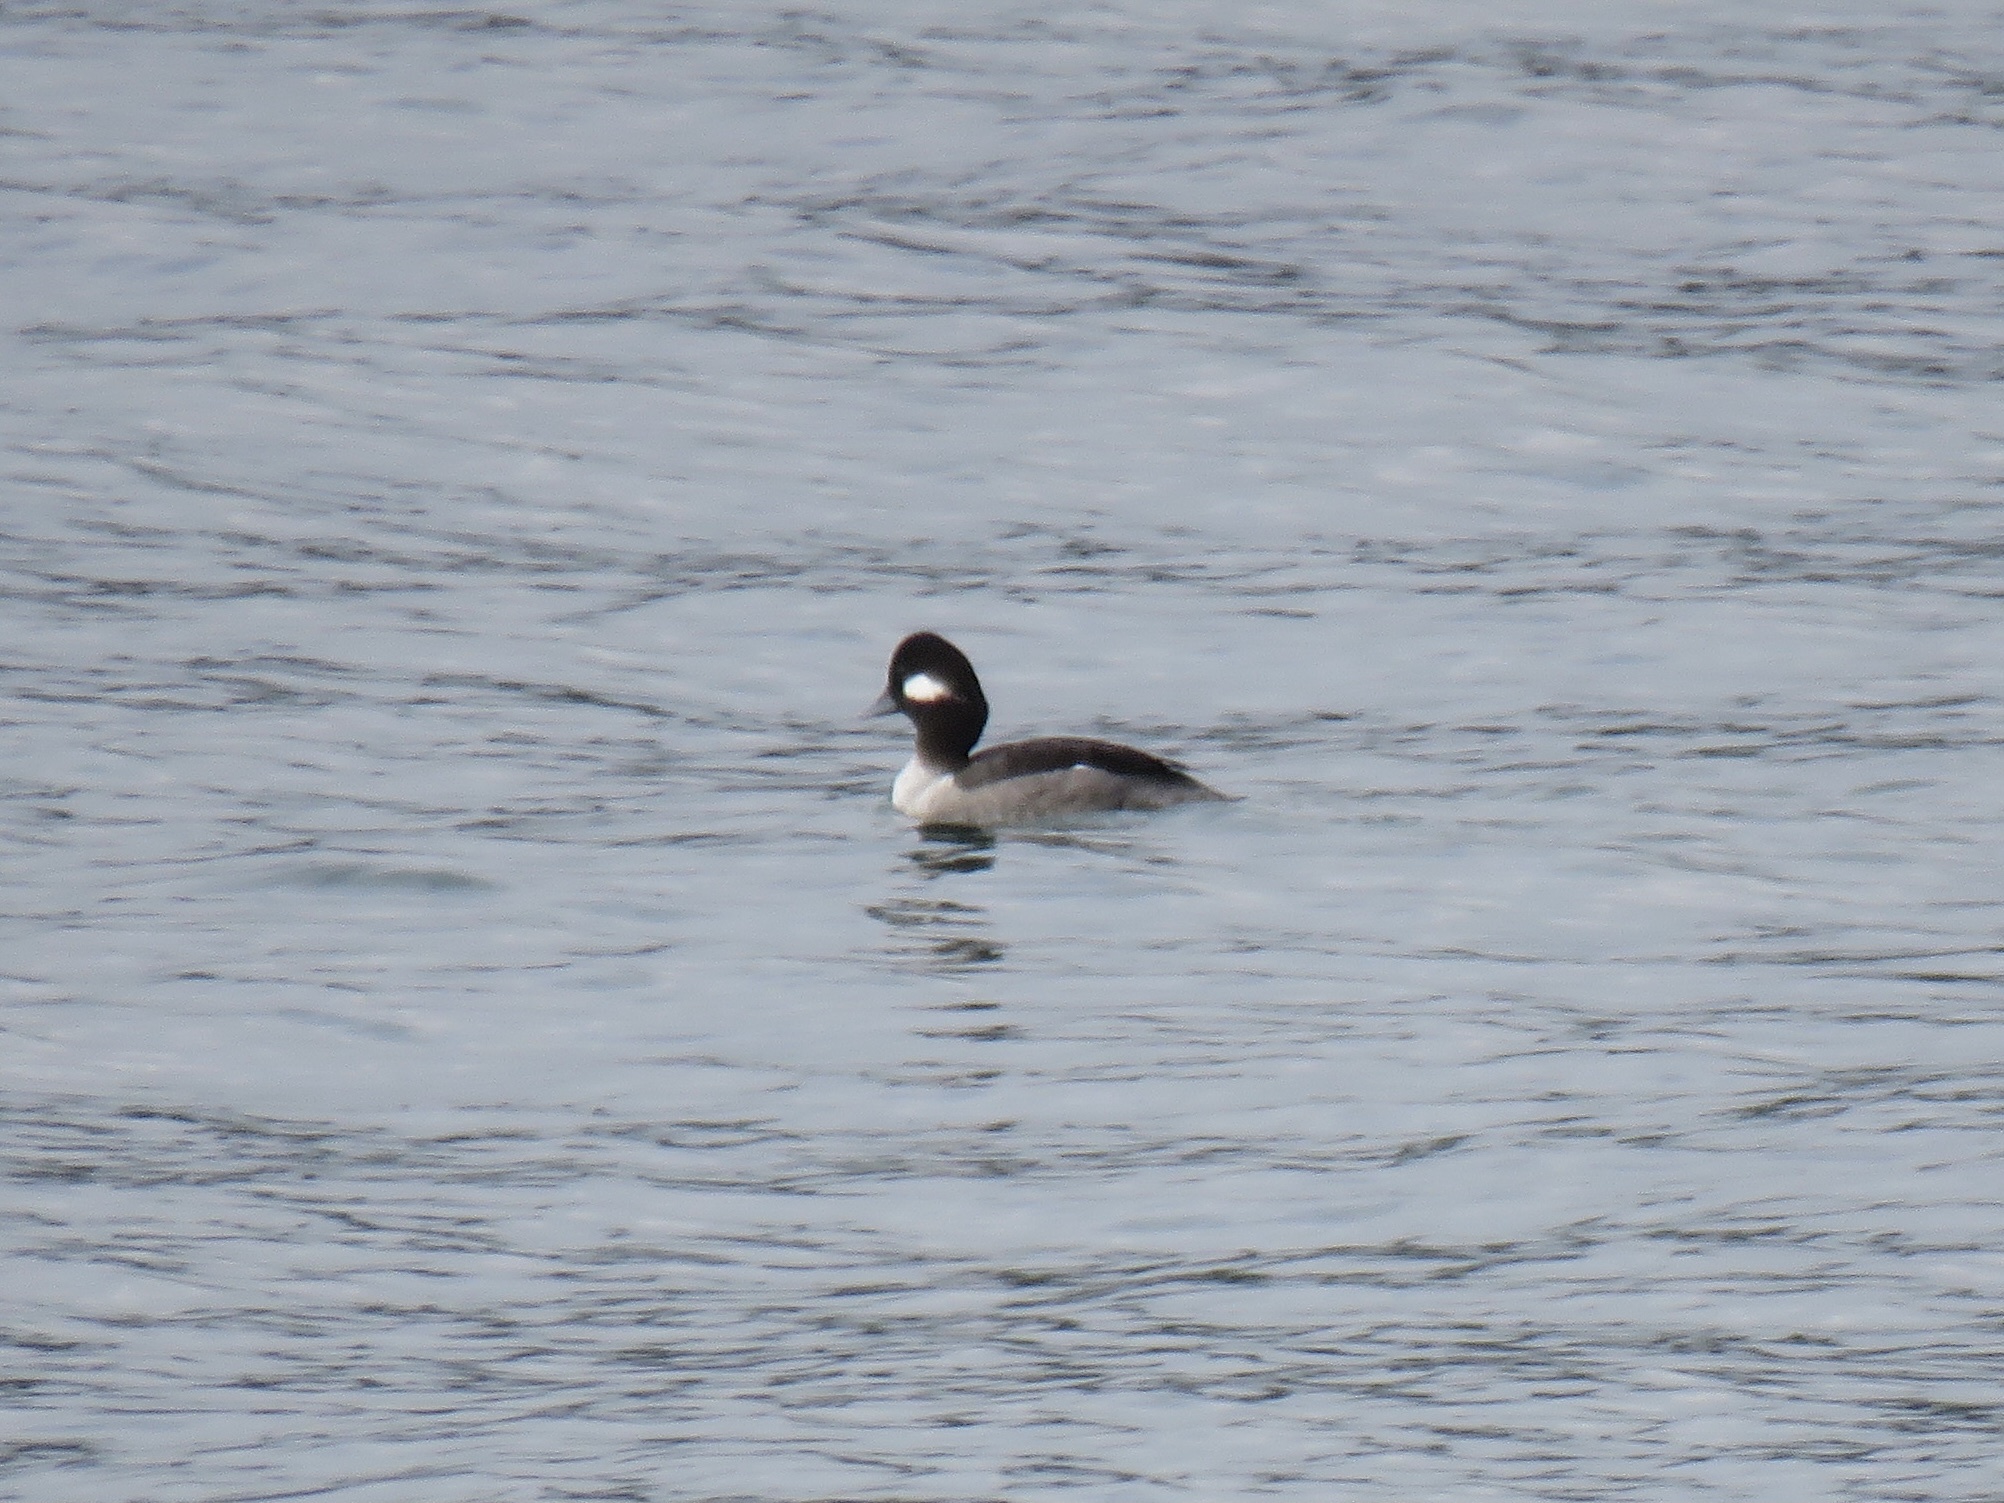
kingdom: Animalia
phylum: Chordata
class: Aves
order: Anseriformes
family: Anatidae
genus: Bucephala
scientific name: Bucephala albeola
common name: Bufflehead
